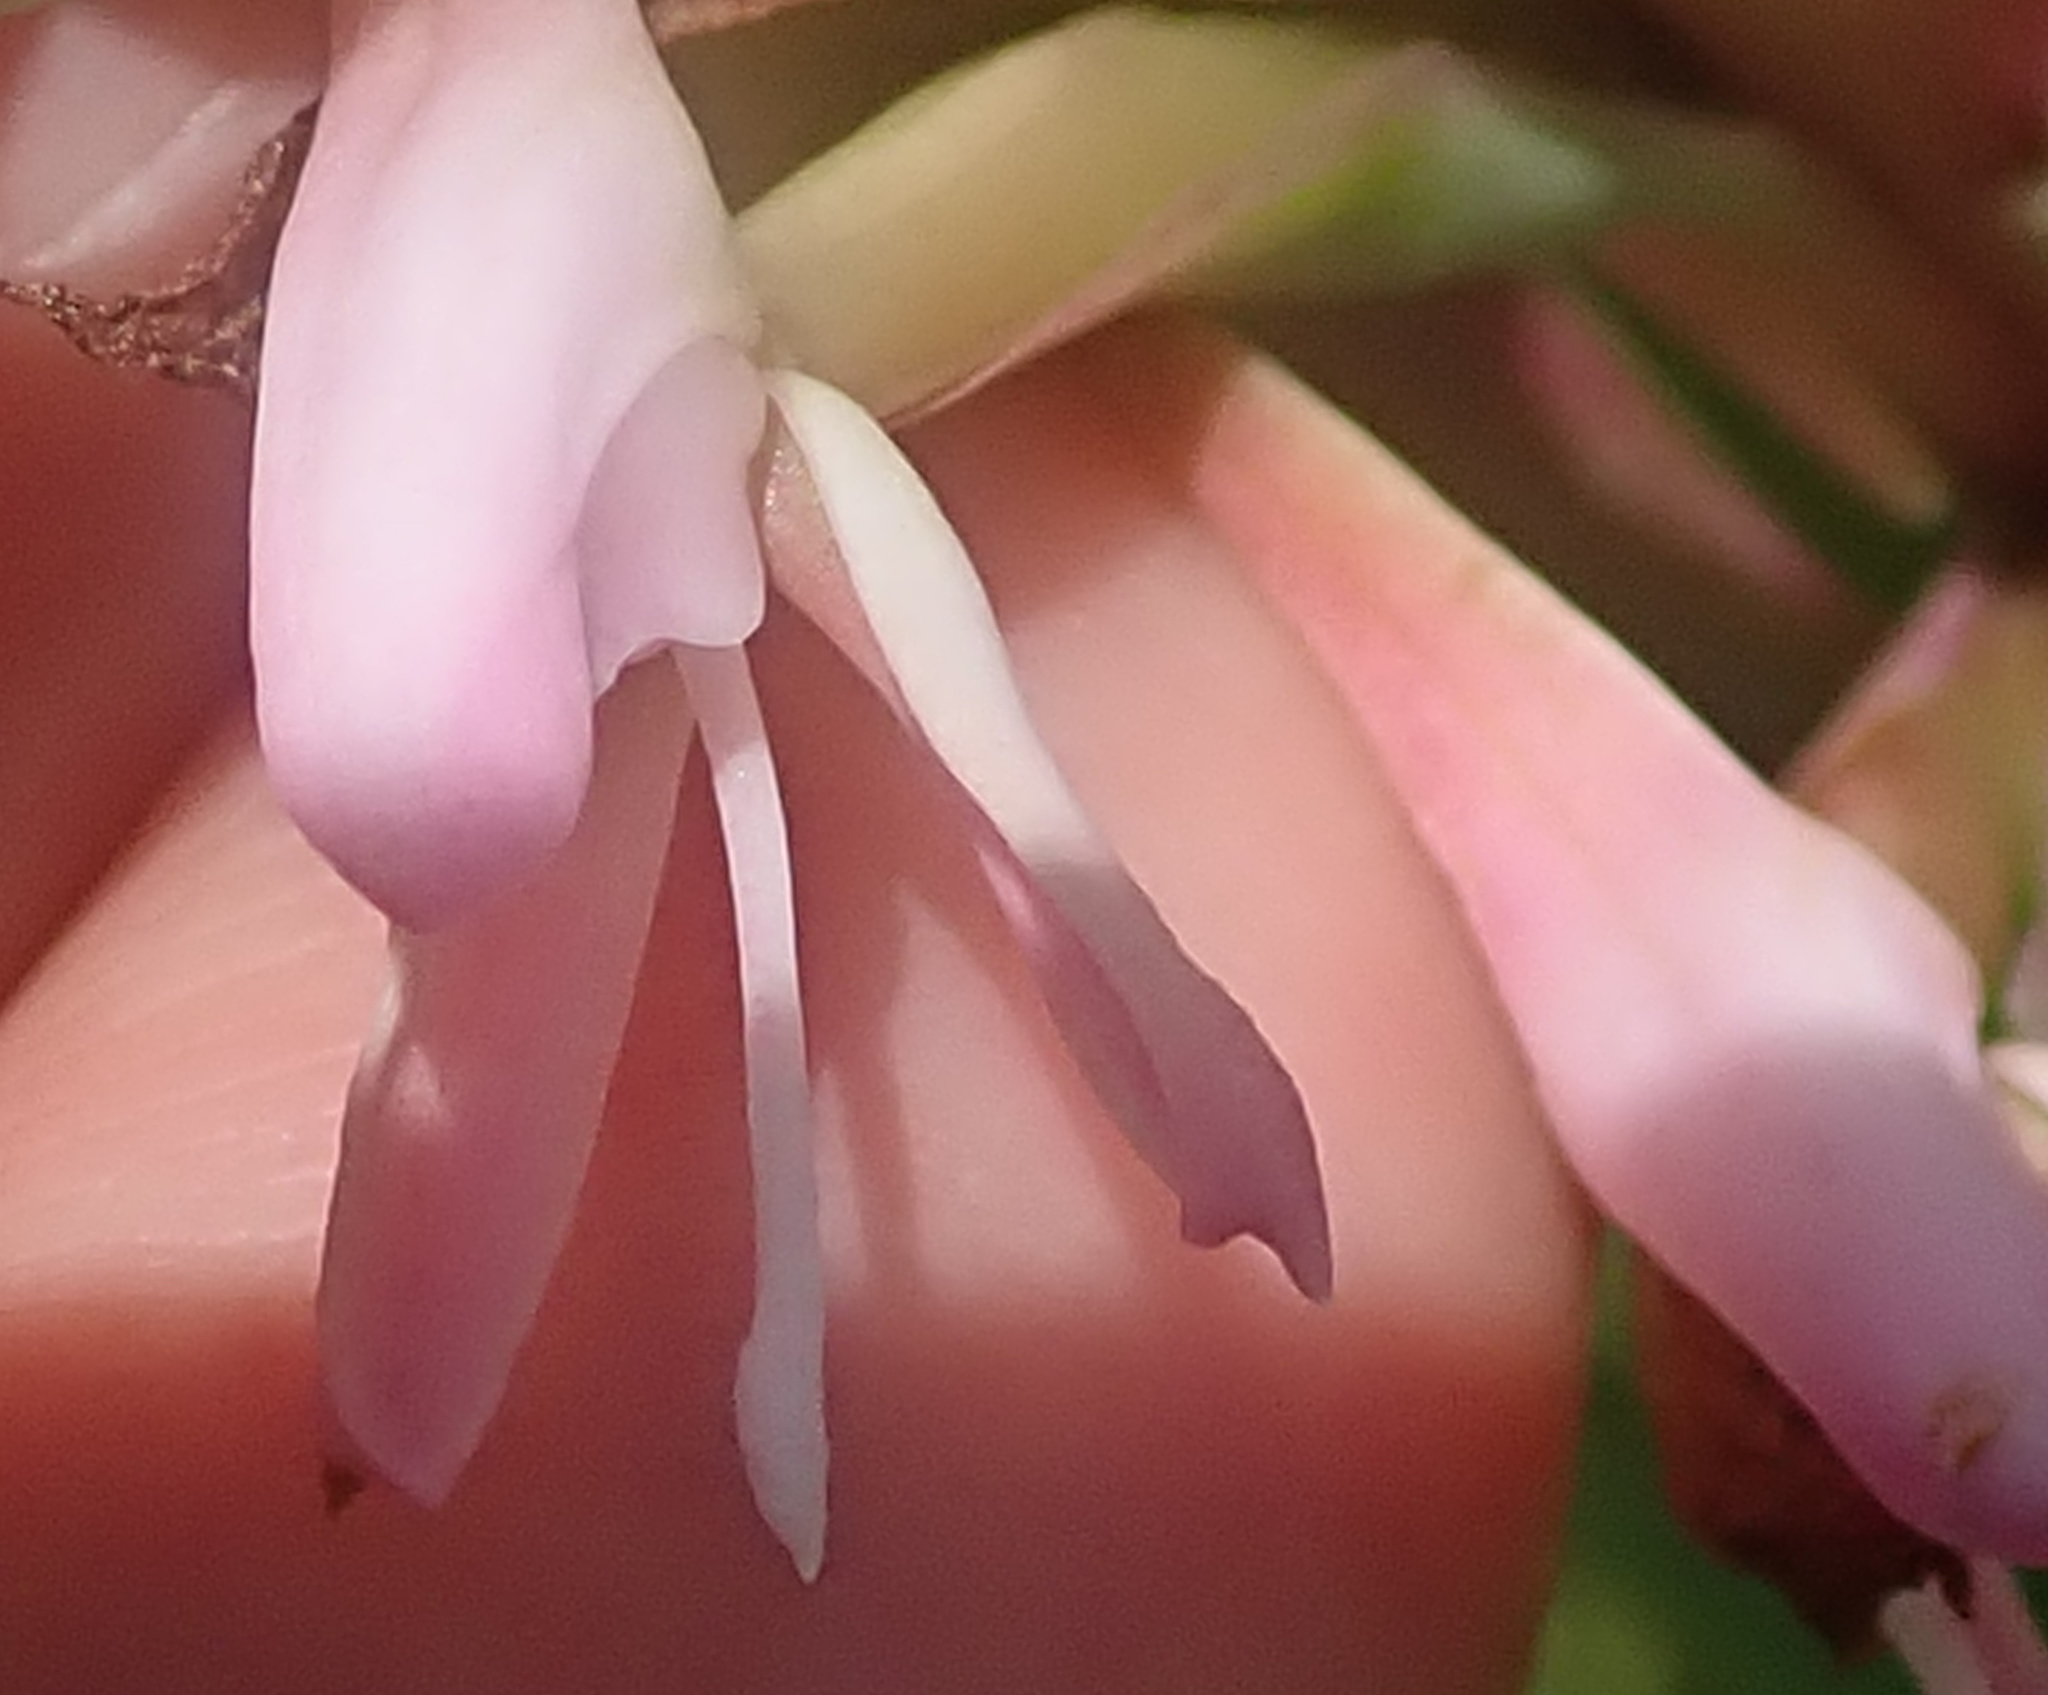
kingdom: Plantae
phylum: Tracheophyta
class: Liliopsida
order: Asparagales
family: Orchidaceae
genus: Disa
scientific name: Disa patula
